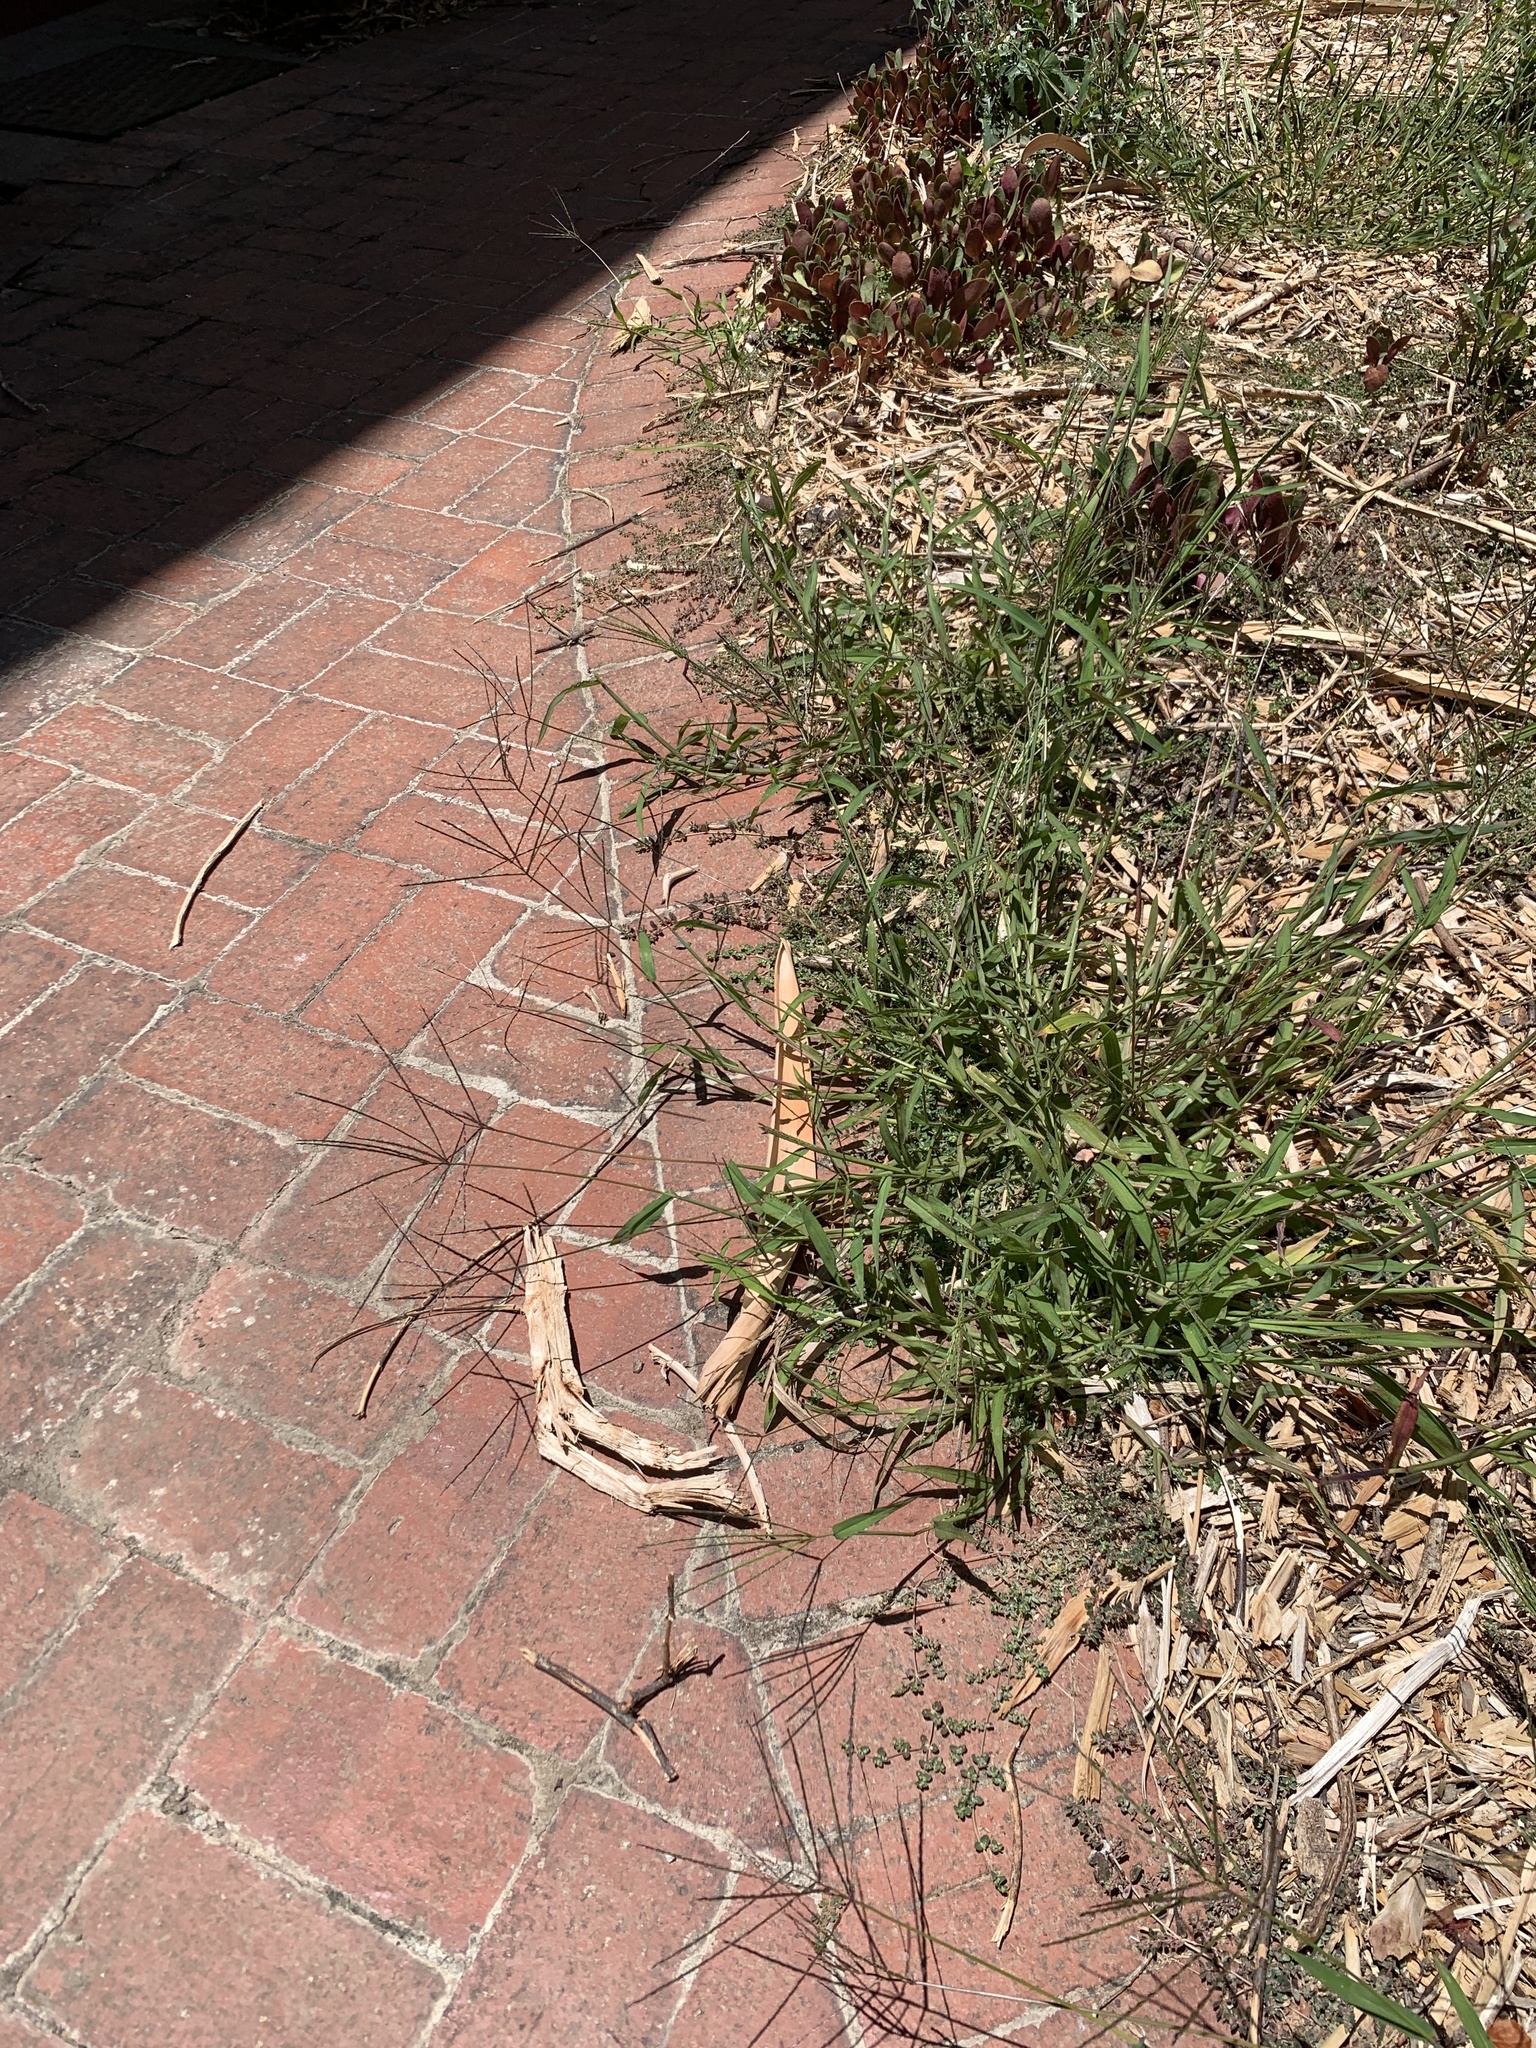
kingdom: Plantae
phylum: Tracheophyta
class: Liliopsida
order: Poales
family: Poaceae
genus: Digitaria
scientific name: Digitaria sanguinalis
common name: Hairy crabgrass
